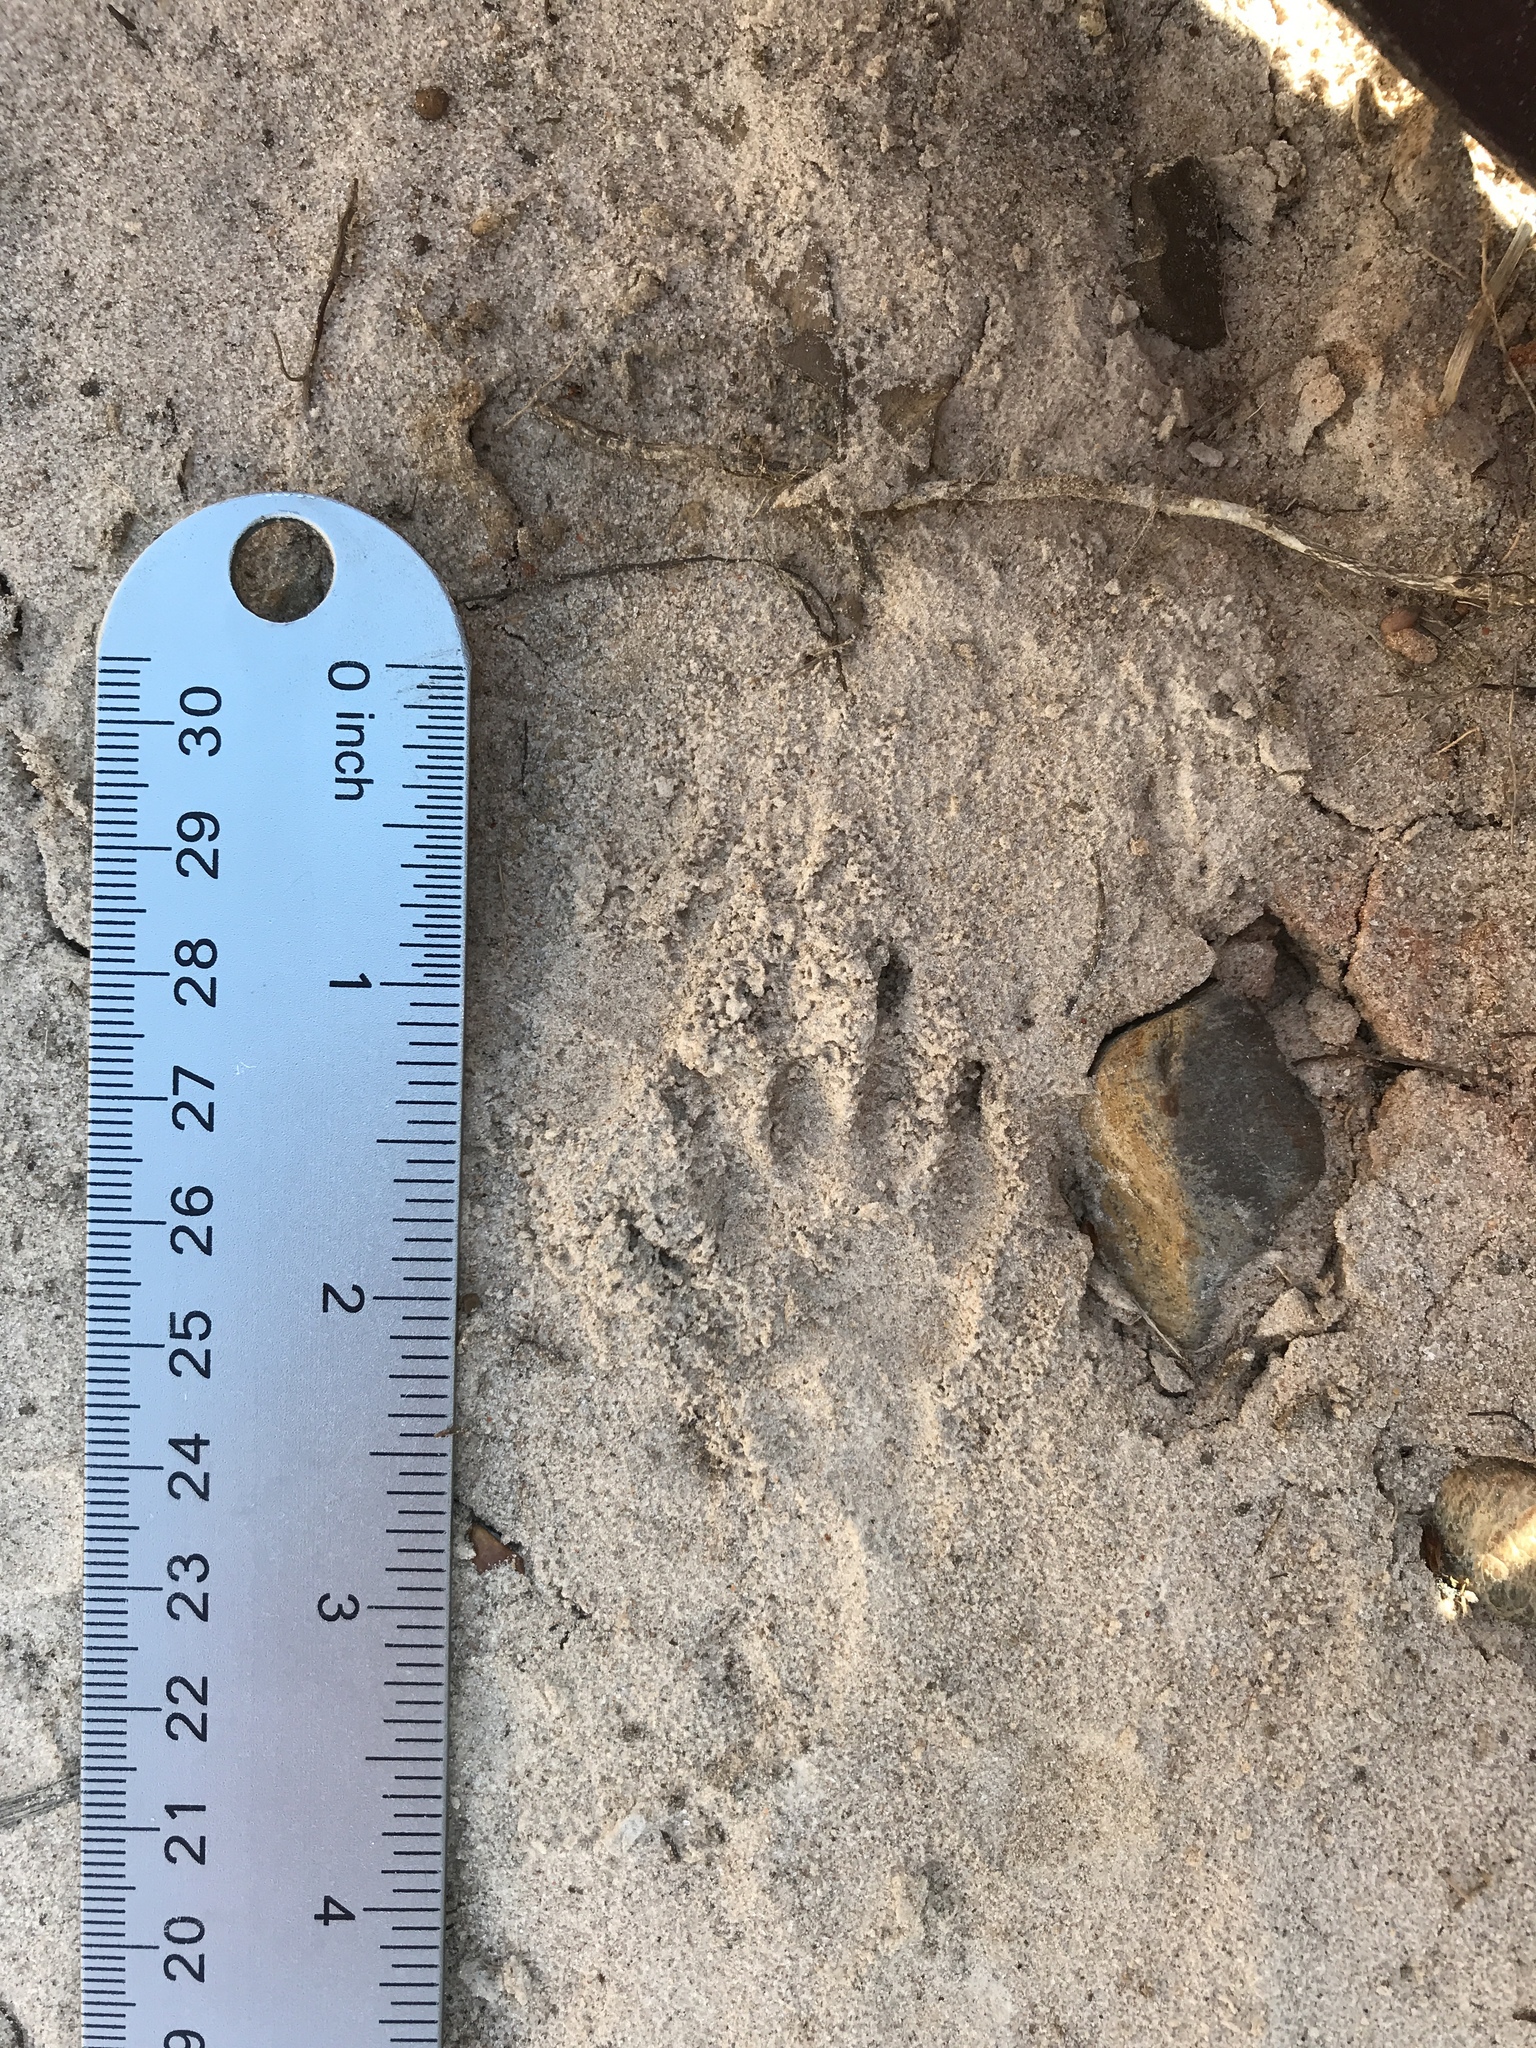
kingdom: Animalia
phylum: Chordata
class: Mammalia
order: Carnivora
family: Mephitidae
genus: Mephitis
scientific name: Mephitis mephitis
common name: Striped skunk
